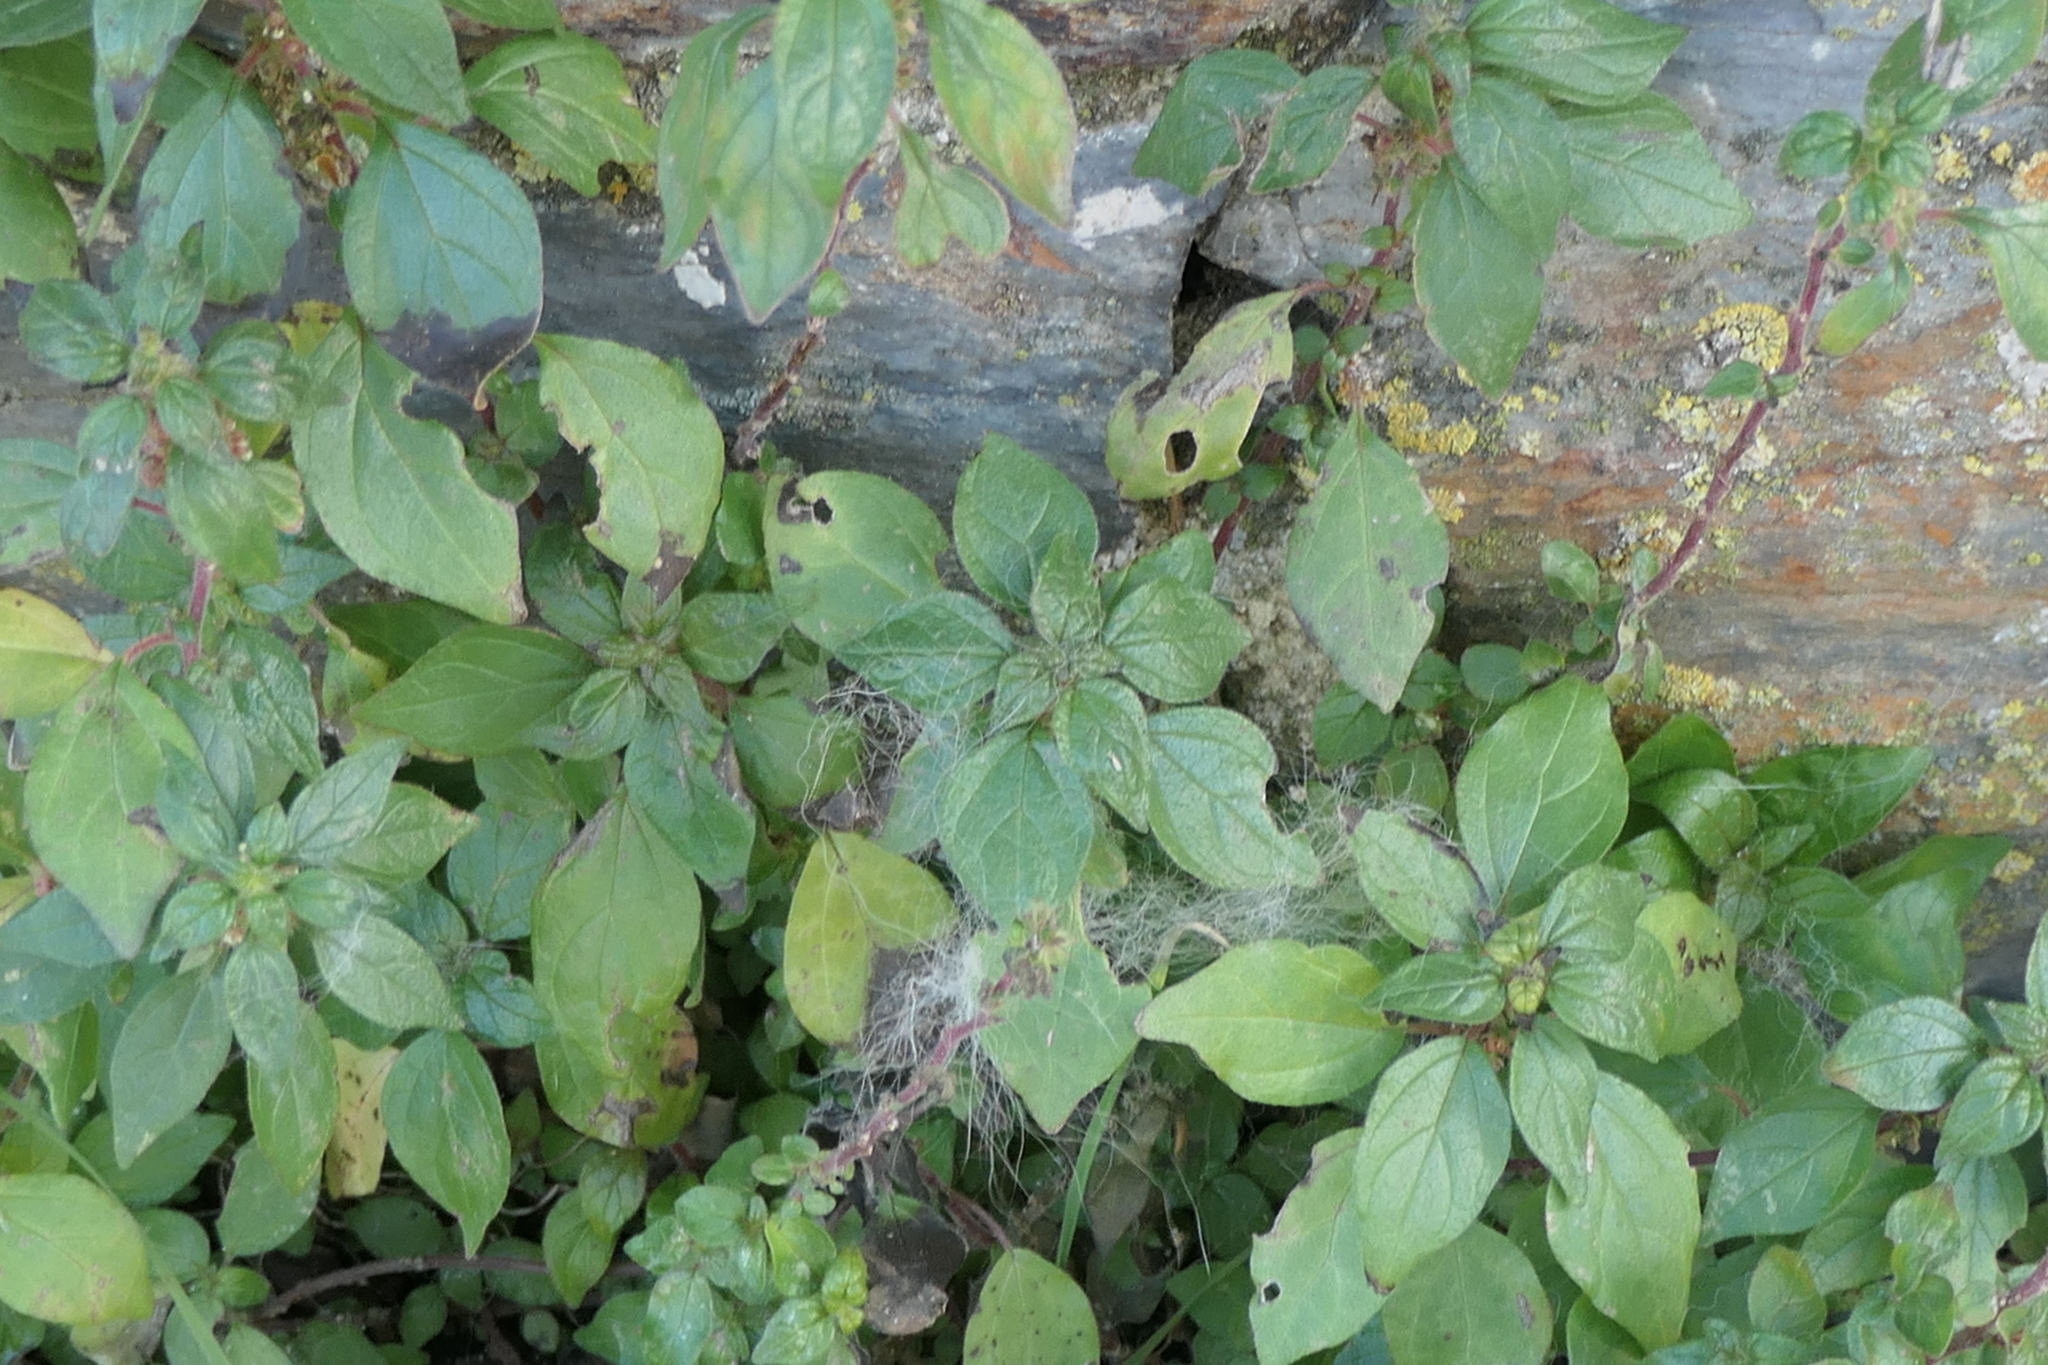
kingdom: Plantae
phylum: Tracheophyta
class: Magnoliopsida
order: Rosales
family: Urticaceae
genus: Parietaria
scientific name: Parietaria judaica
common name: Pellitory-of-the-wall
